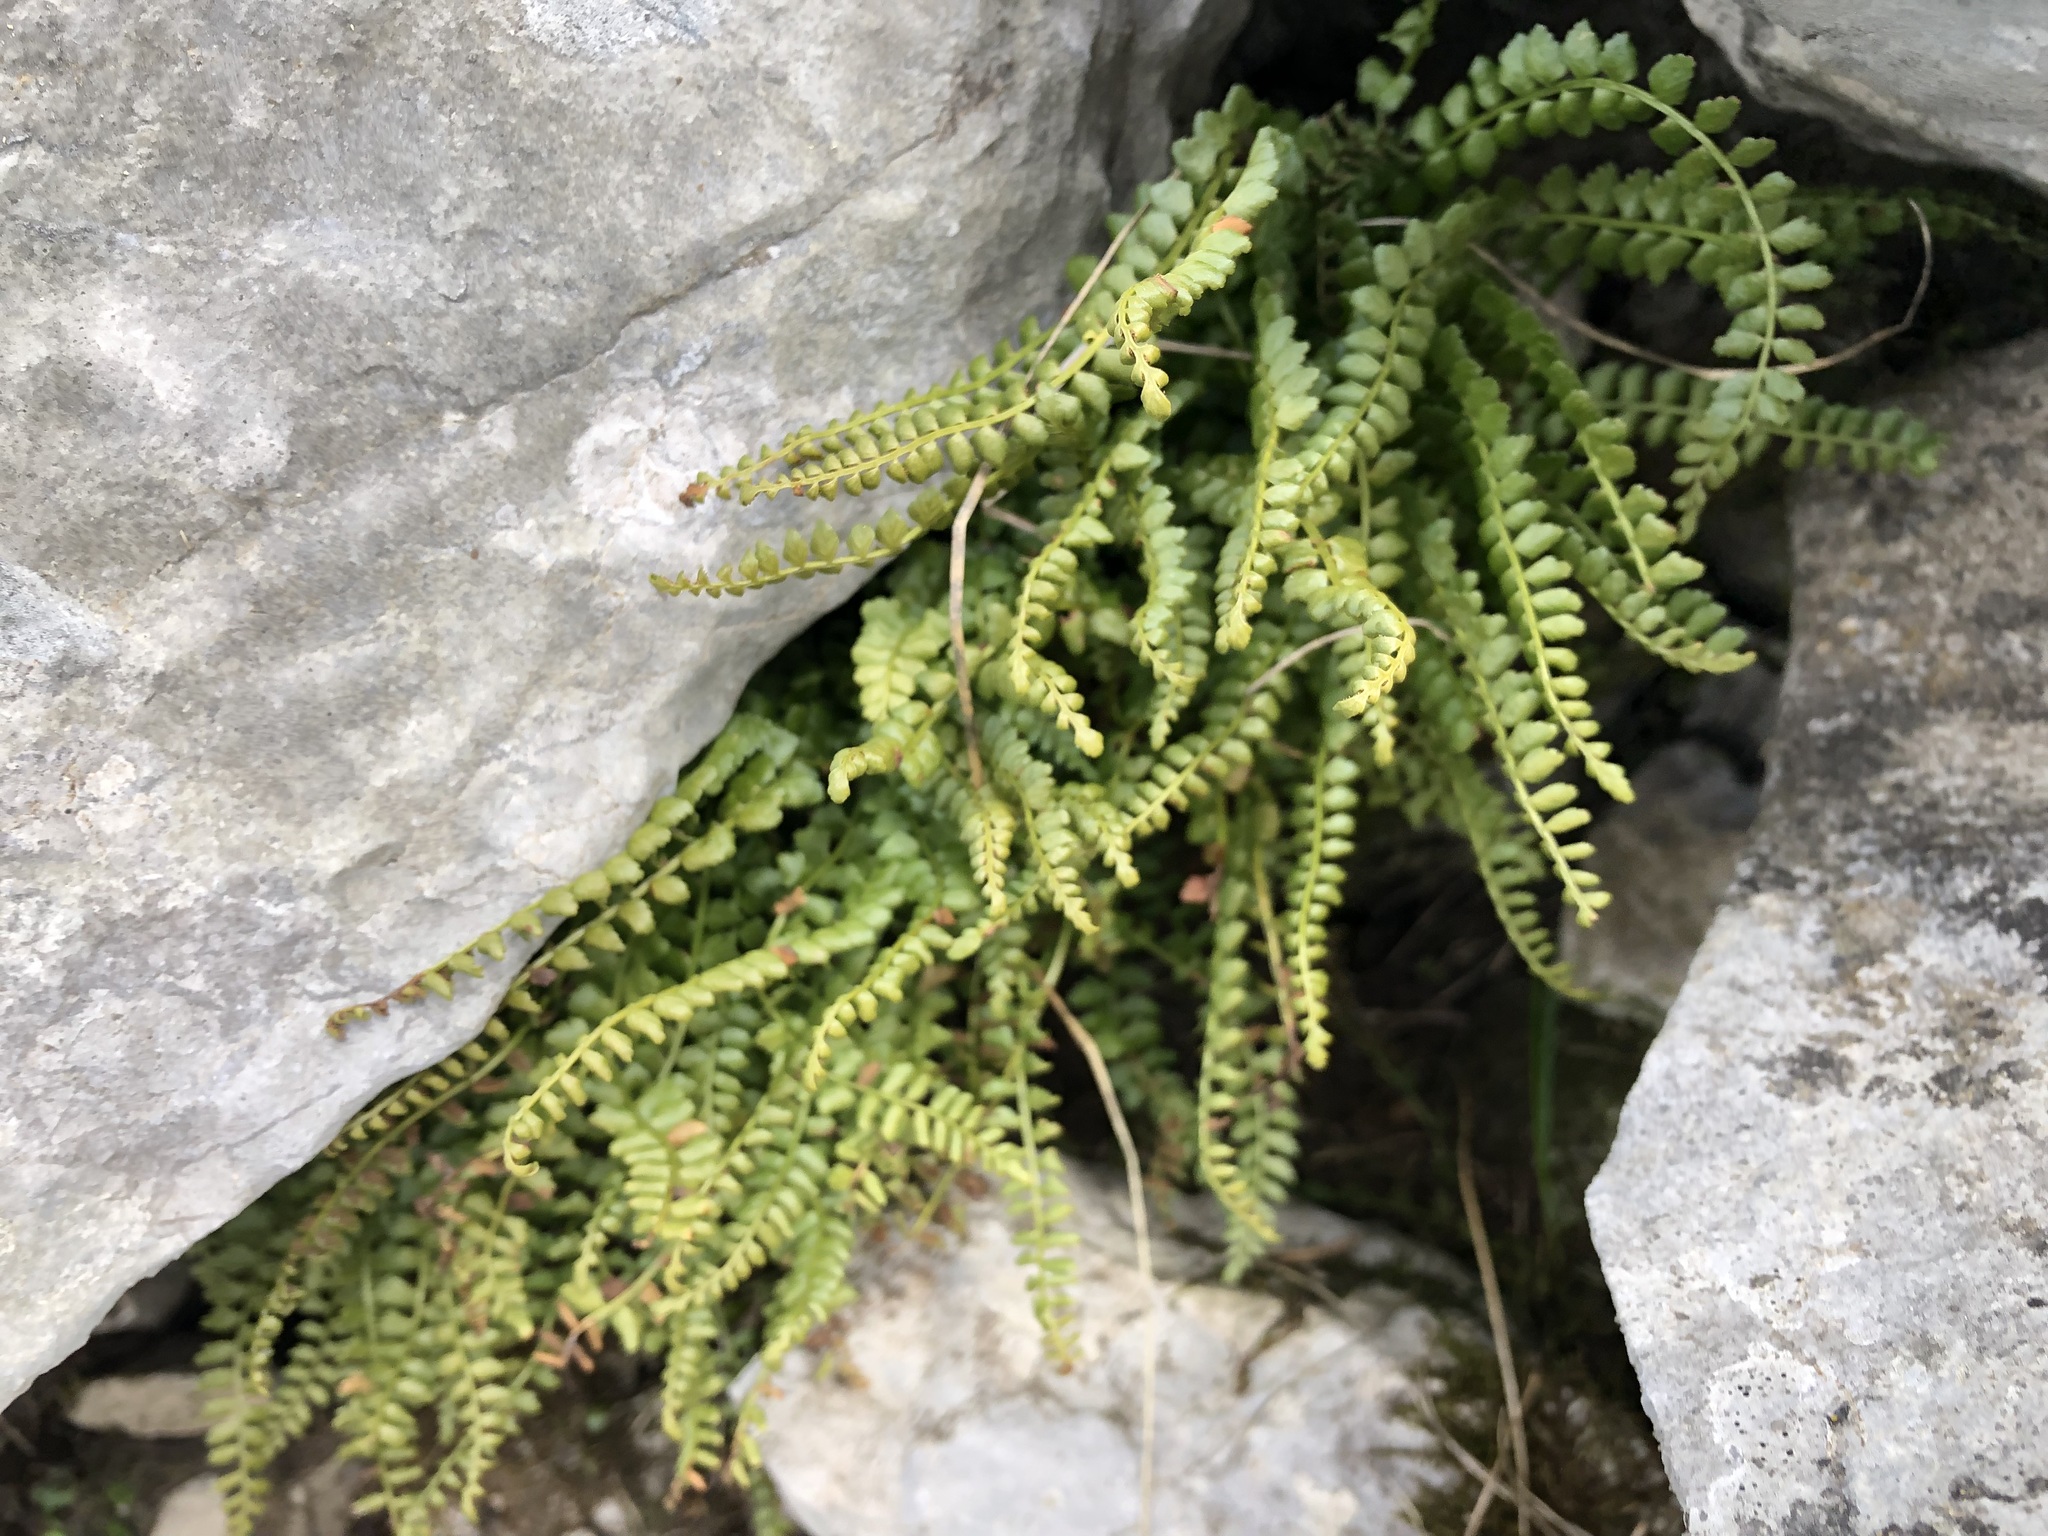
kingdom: Plantae
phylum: Tracheophyta
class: Polypodiopsida
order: Polypodiales
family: Aspleniaceae
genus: Asplenium
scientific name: Asplenium viride
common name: Green spleenwort
